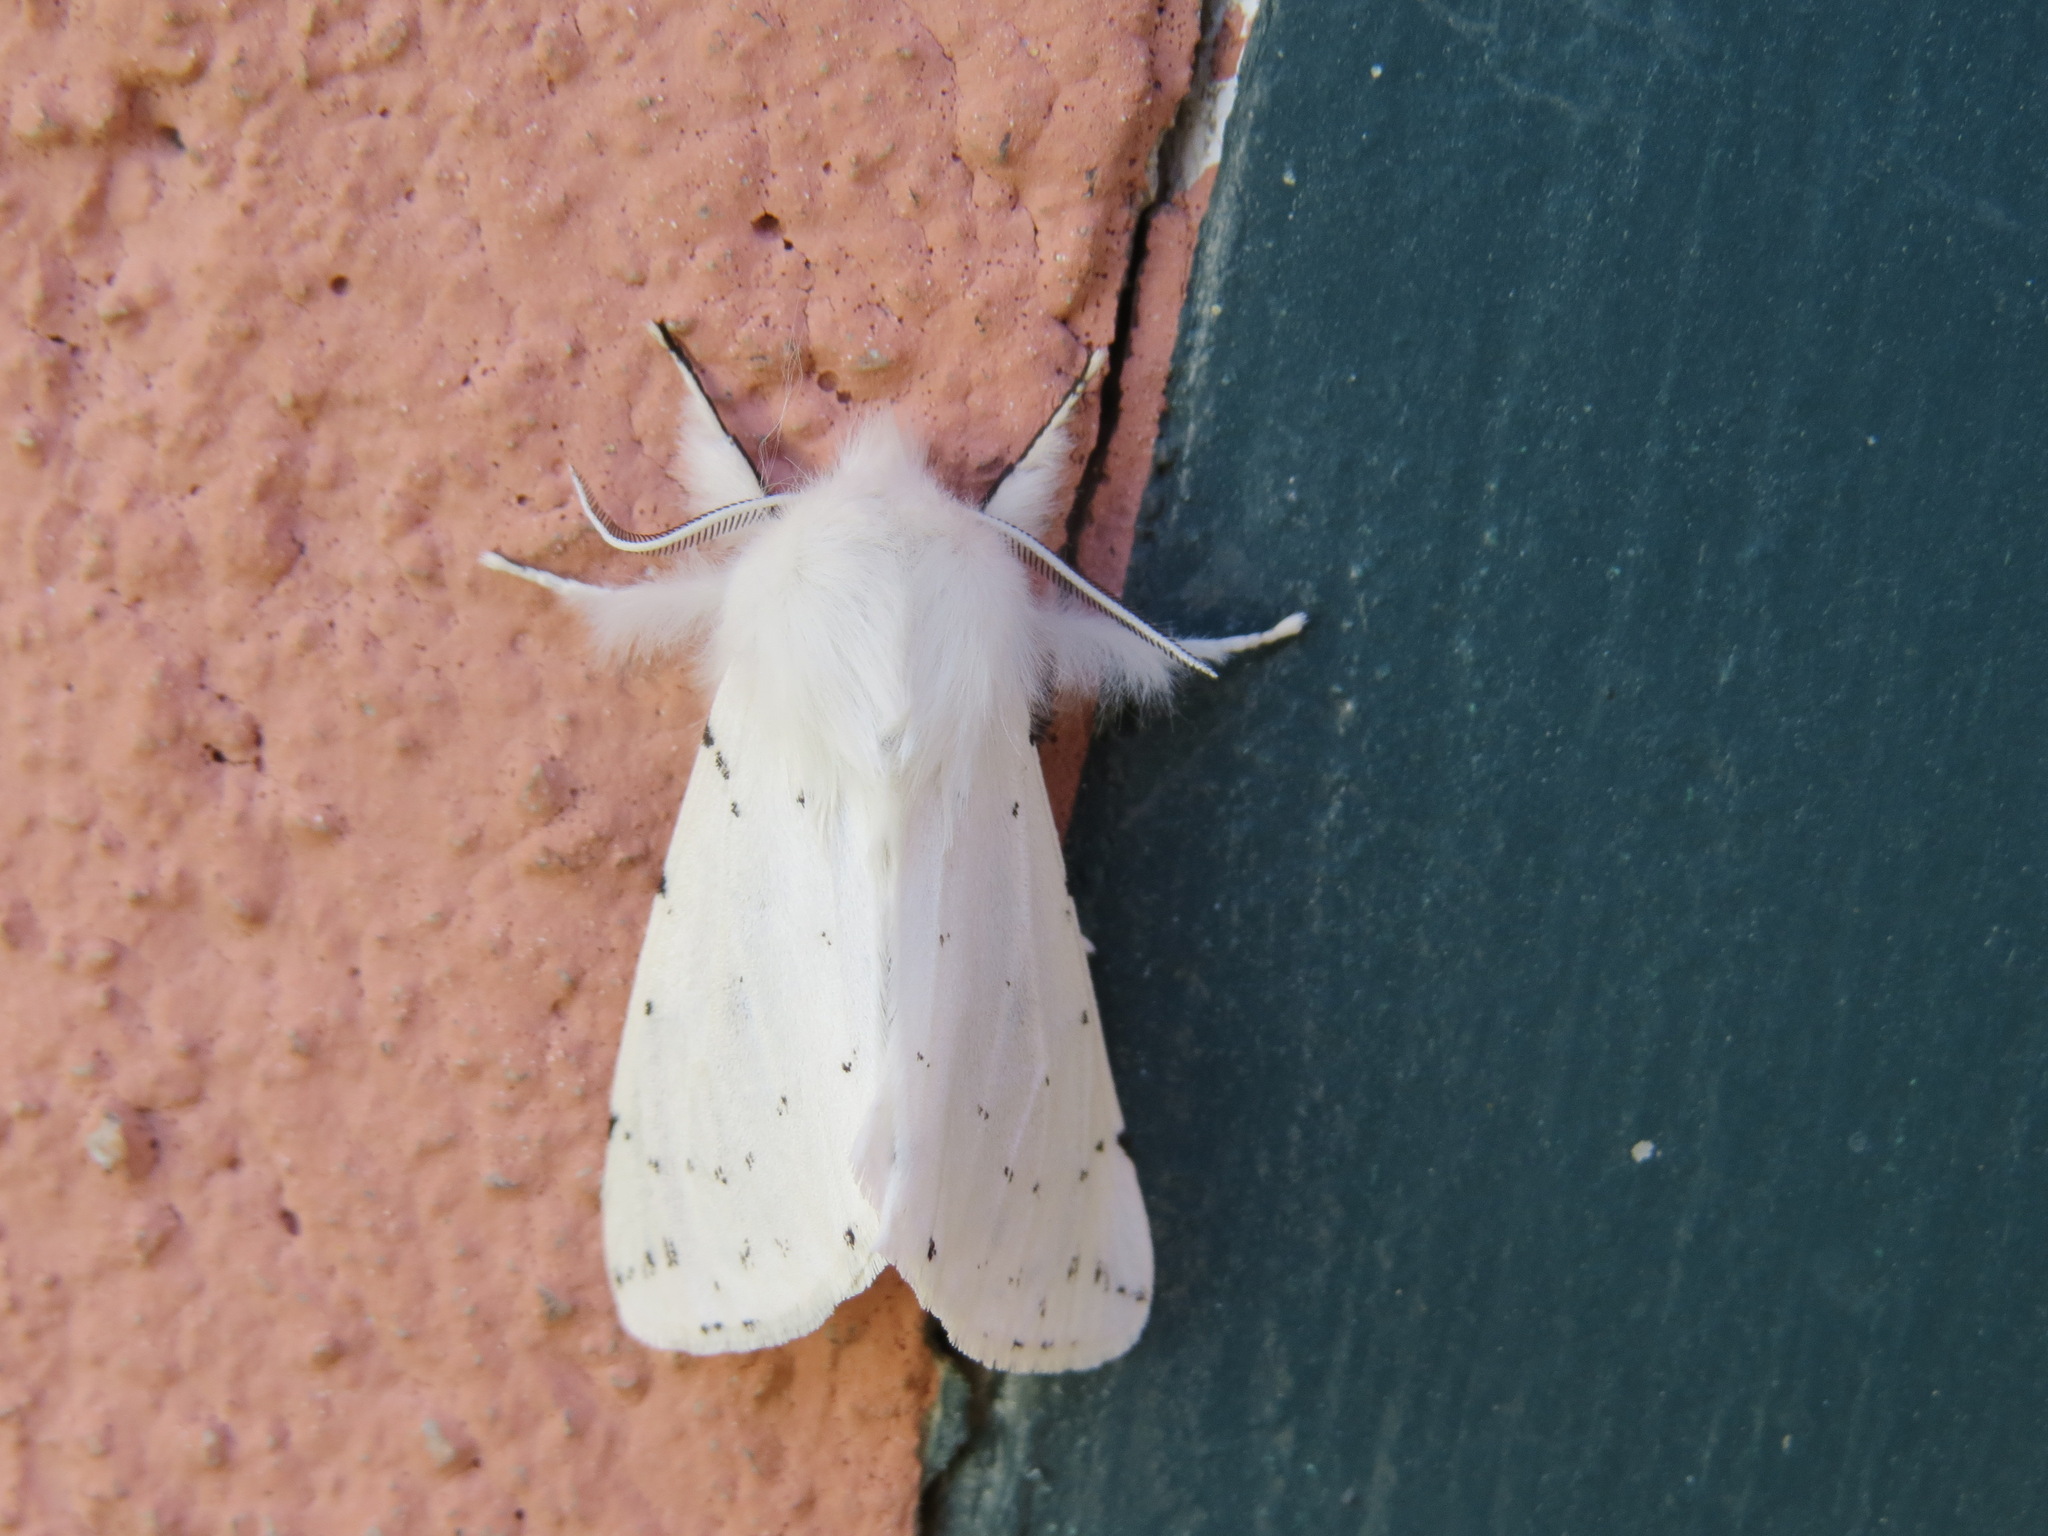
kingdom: Animalia
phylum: Arthropoda
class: Insecta
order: Lepidoptera
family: Erebidae
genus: Spilosoma
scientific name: Spilosoma vestalis
